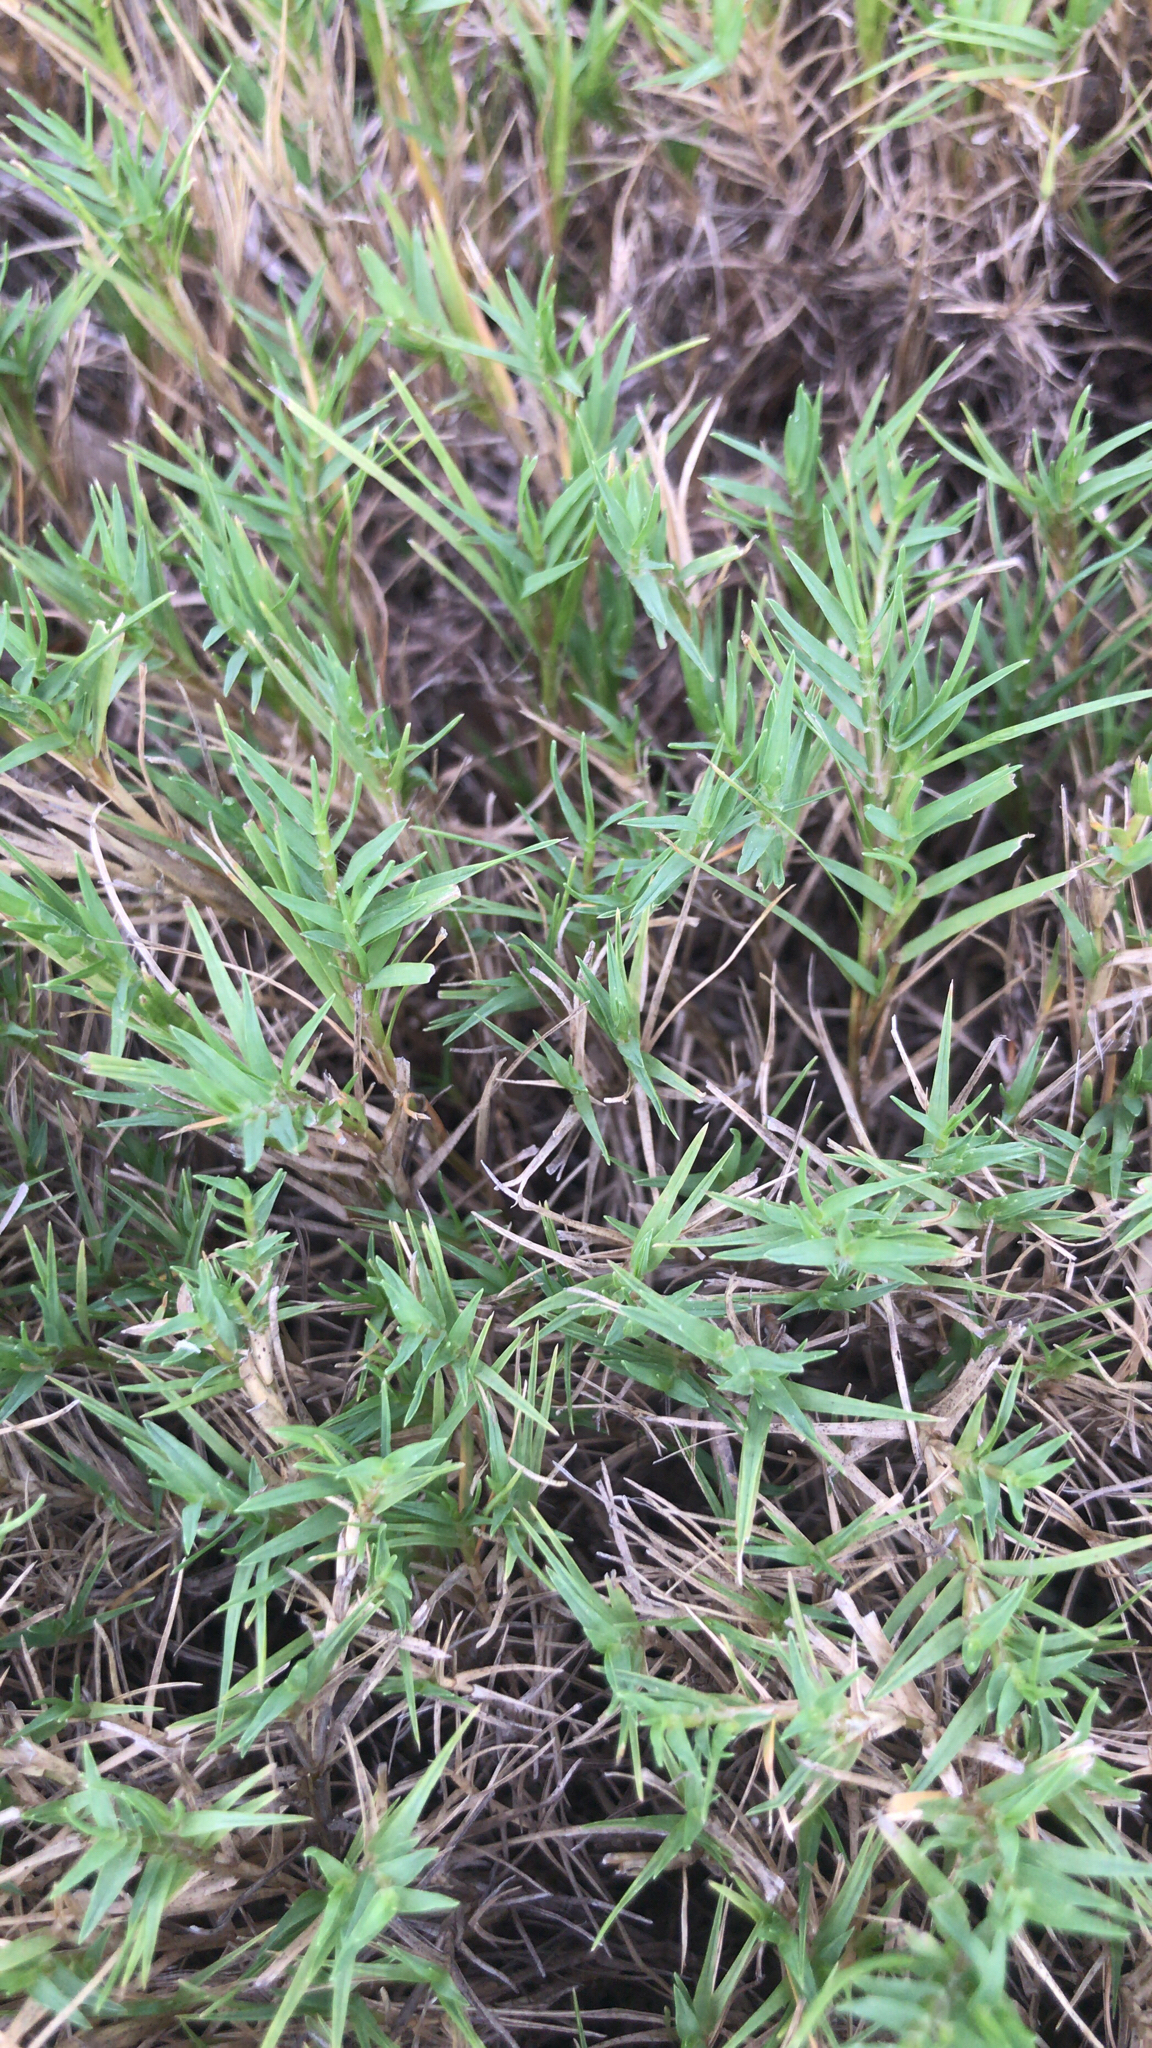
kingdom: Plantae
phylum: Tracheophyta
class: Liliopsida
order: Poales
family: Poaceae
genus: Distichlis
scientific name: Distichlis spicata
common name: Saltgrass
